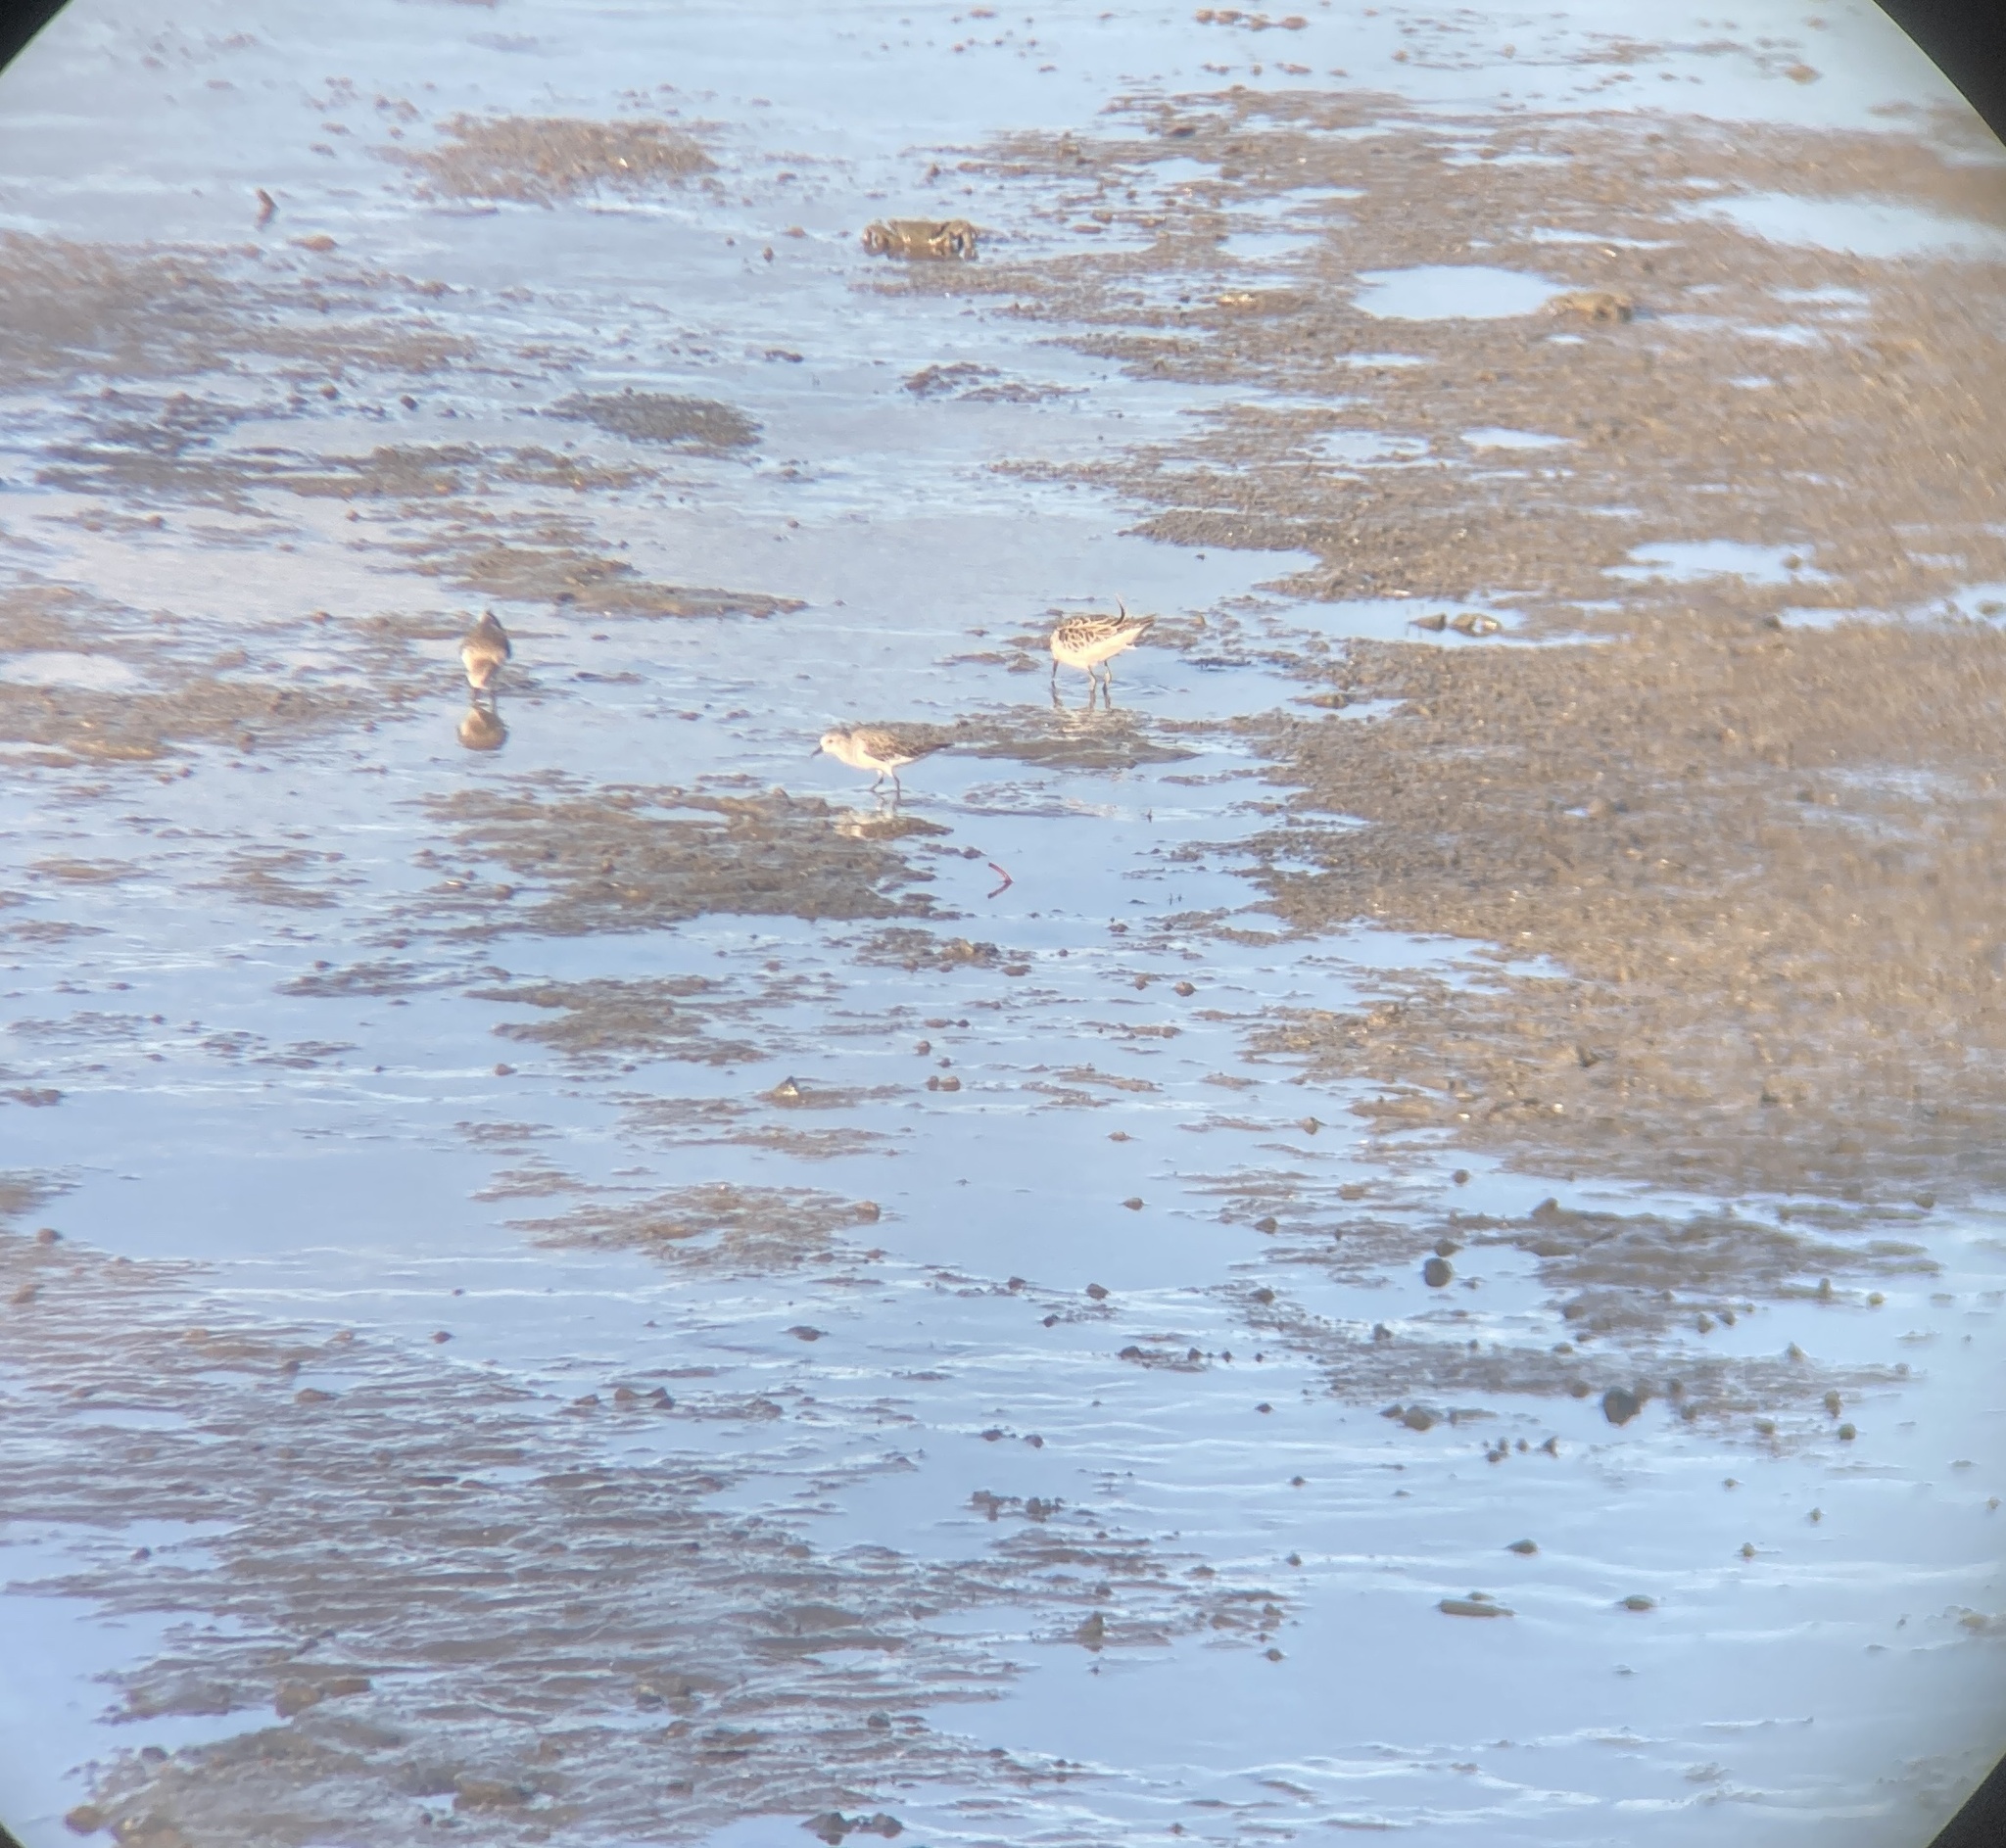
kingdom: Animalia
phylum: Chordata
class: Aves
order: Charadriiformes
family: Scolopacidae
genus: Calidris
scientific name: Calidris ruficollis
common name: Red-necked stint
